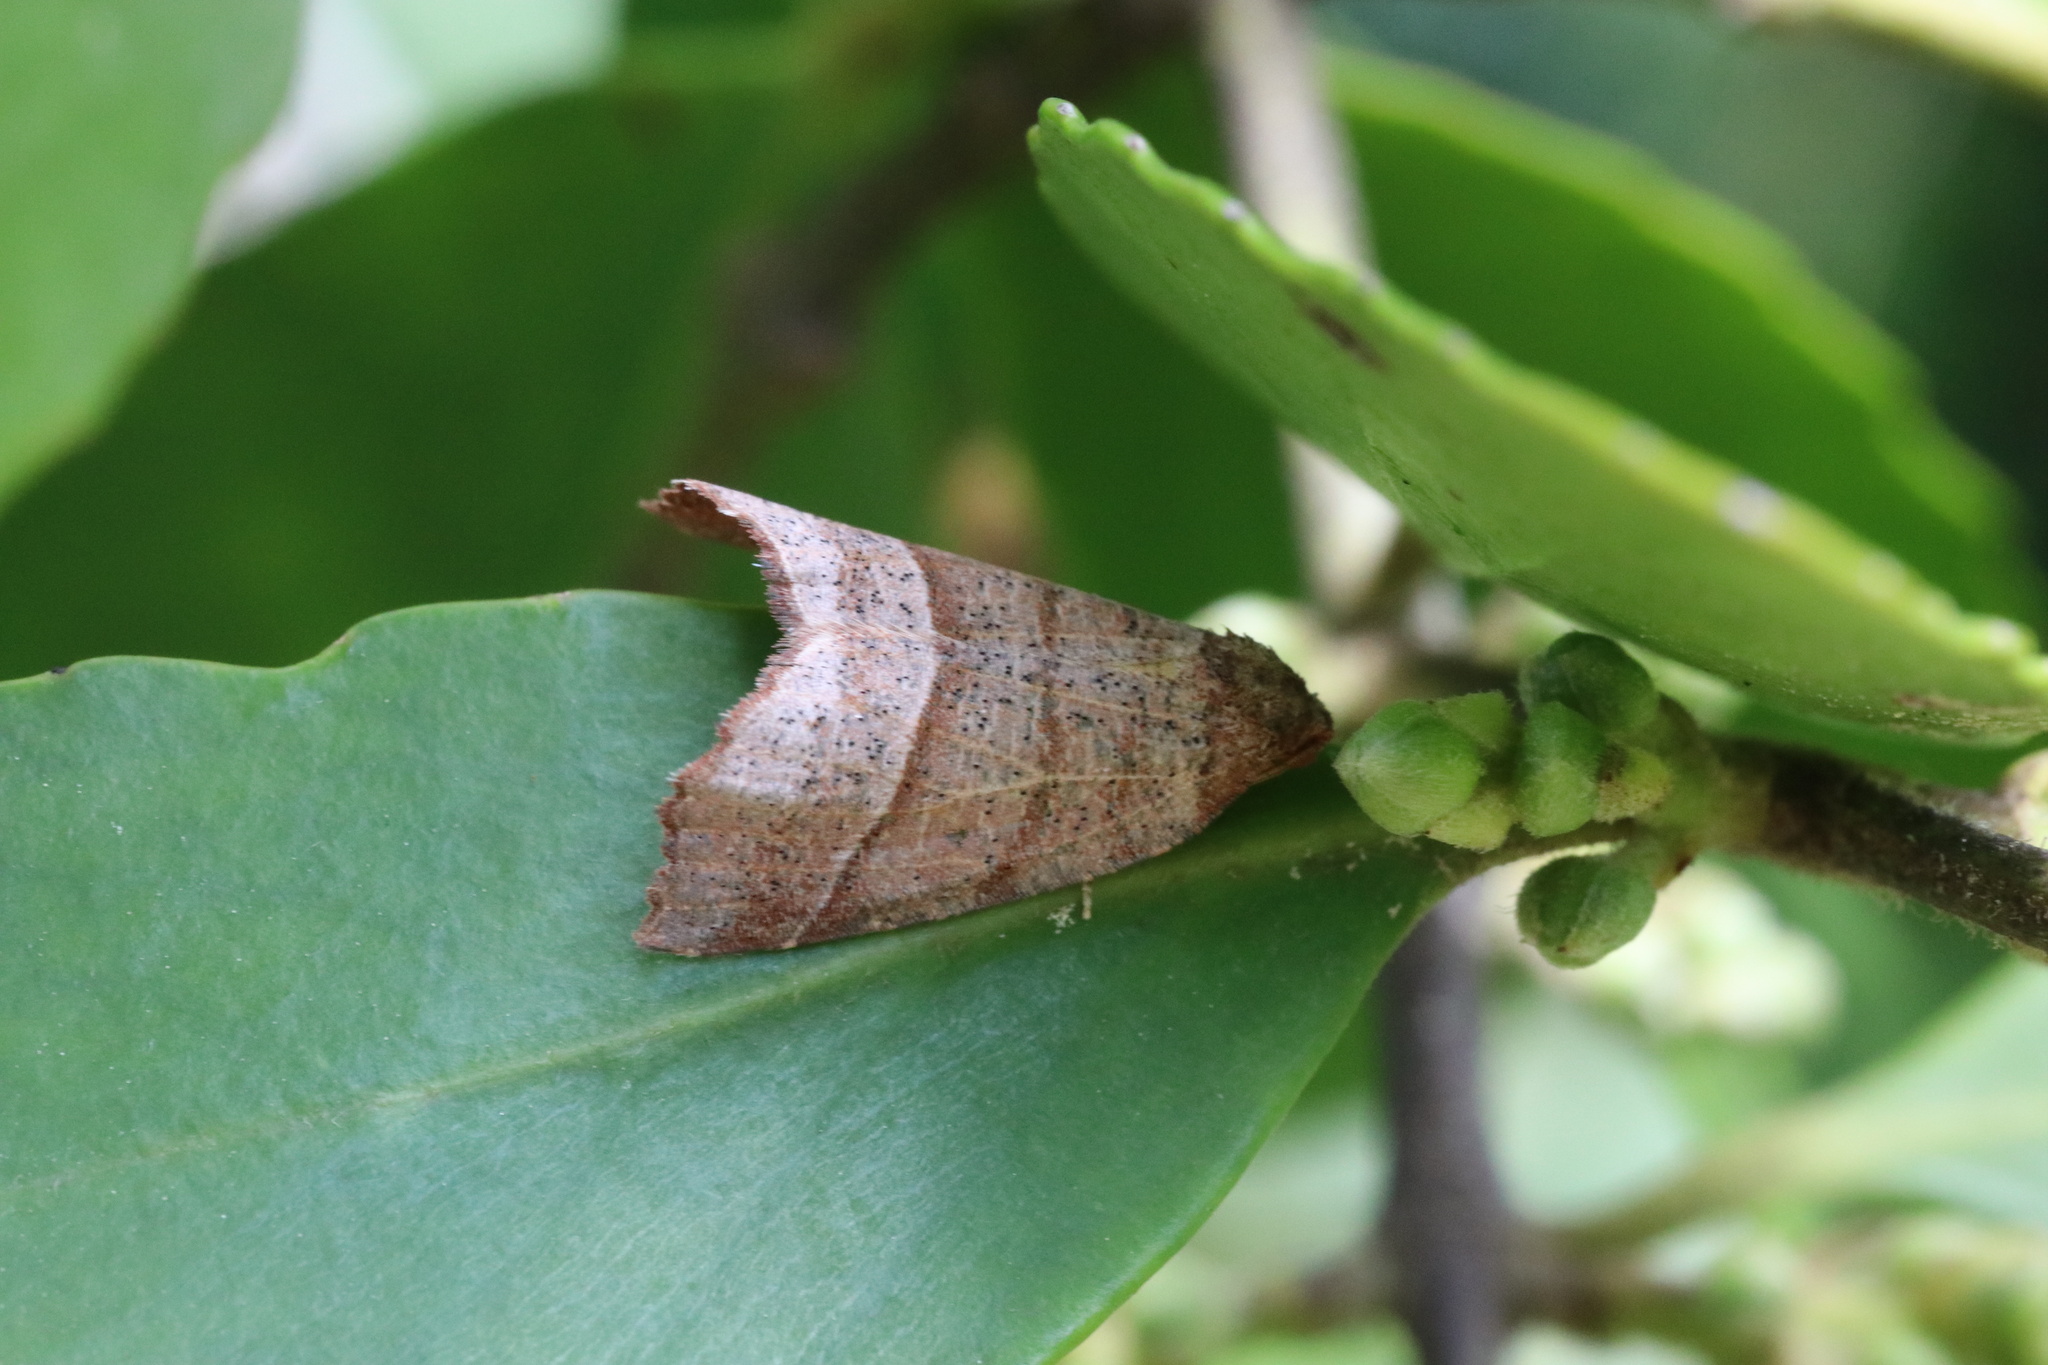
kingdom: Animalia
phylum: Arthropoda
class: Insecta
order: Lepidoptera
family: Geometridae
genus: Franciscoia
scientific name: Franciscoia morenoi
